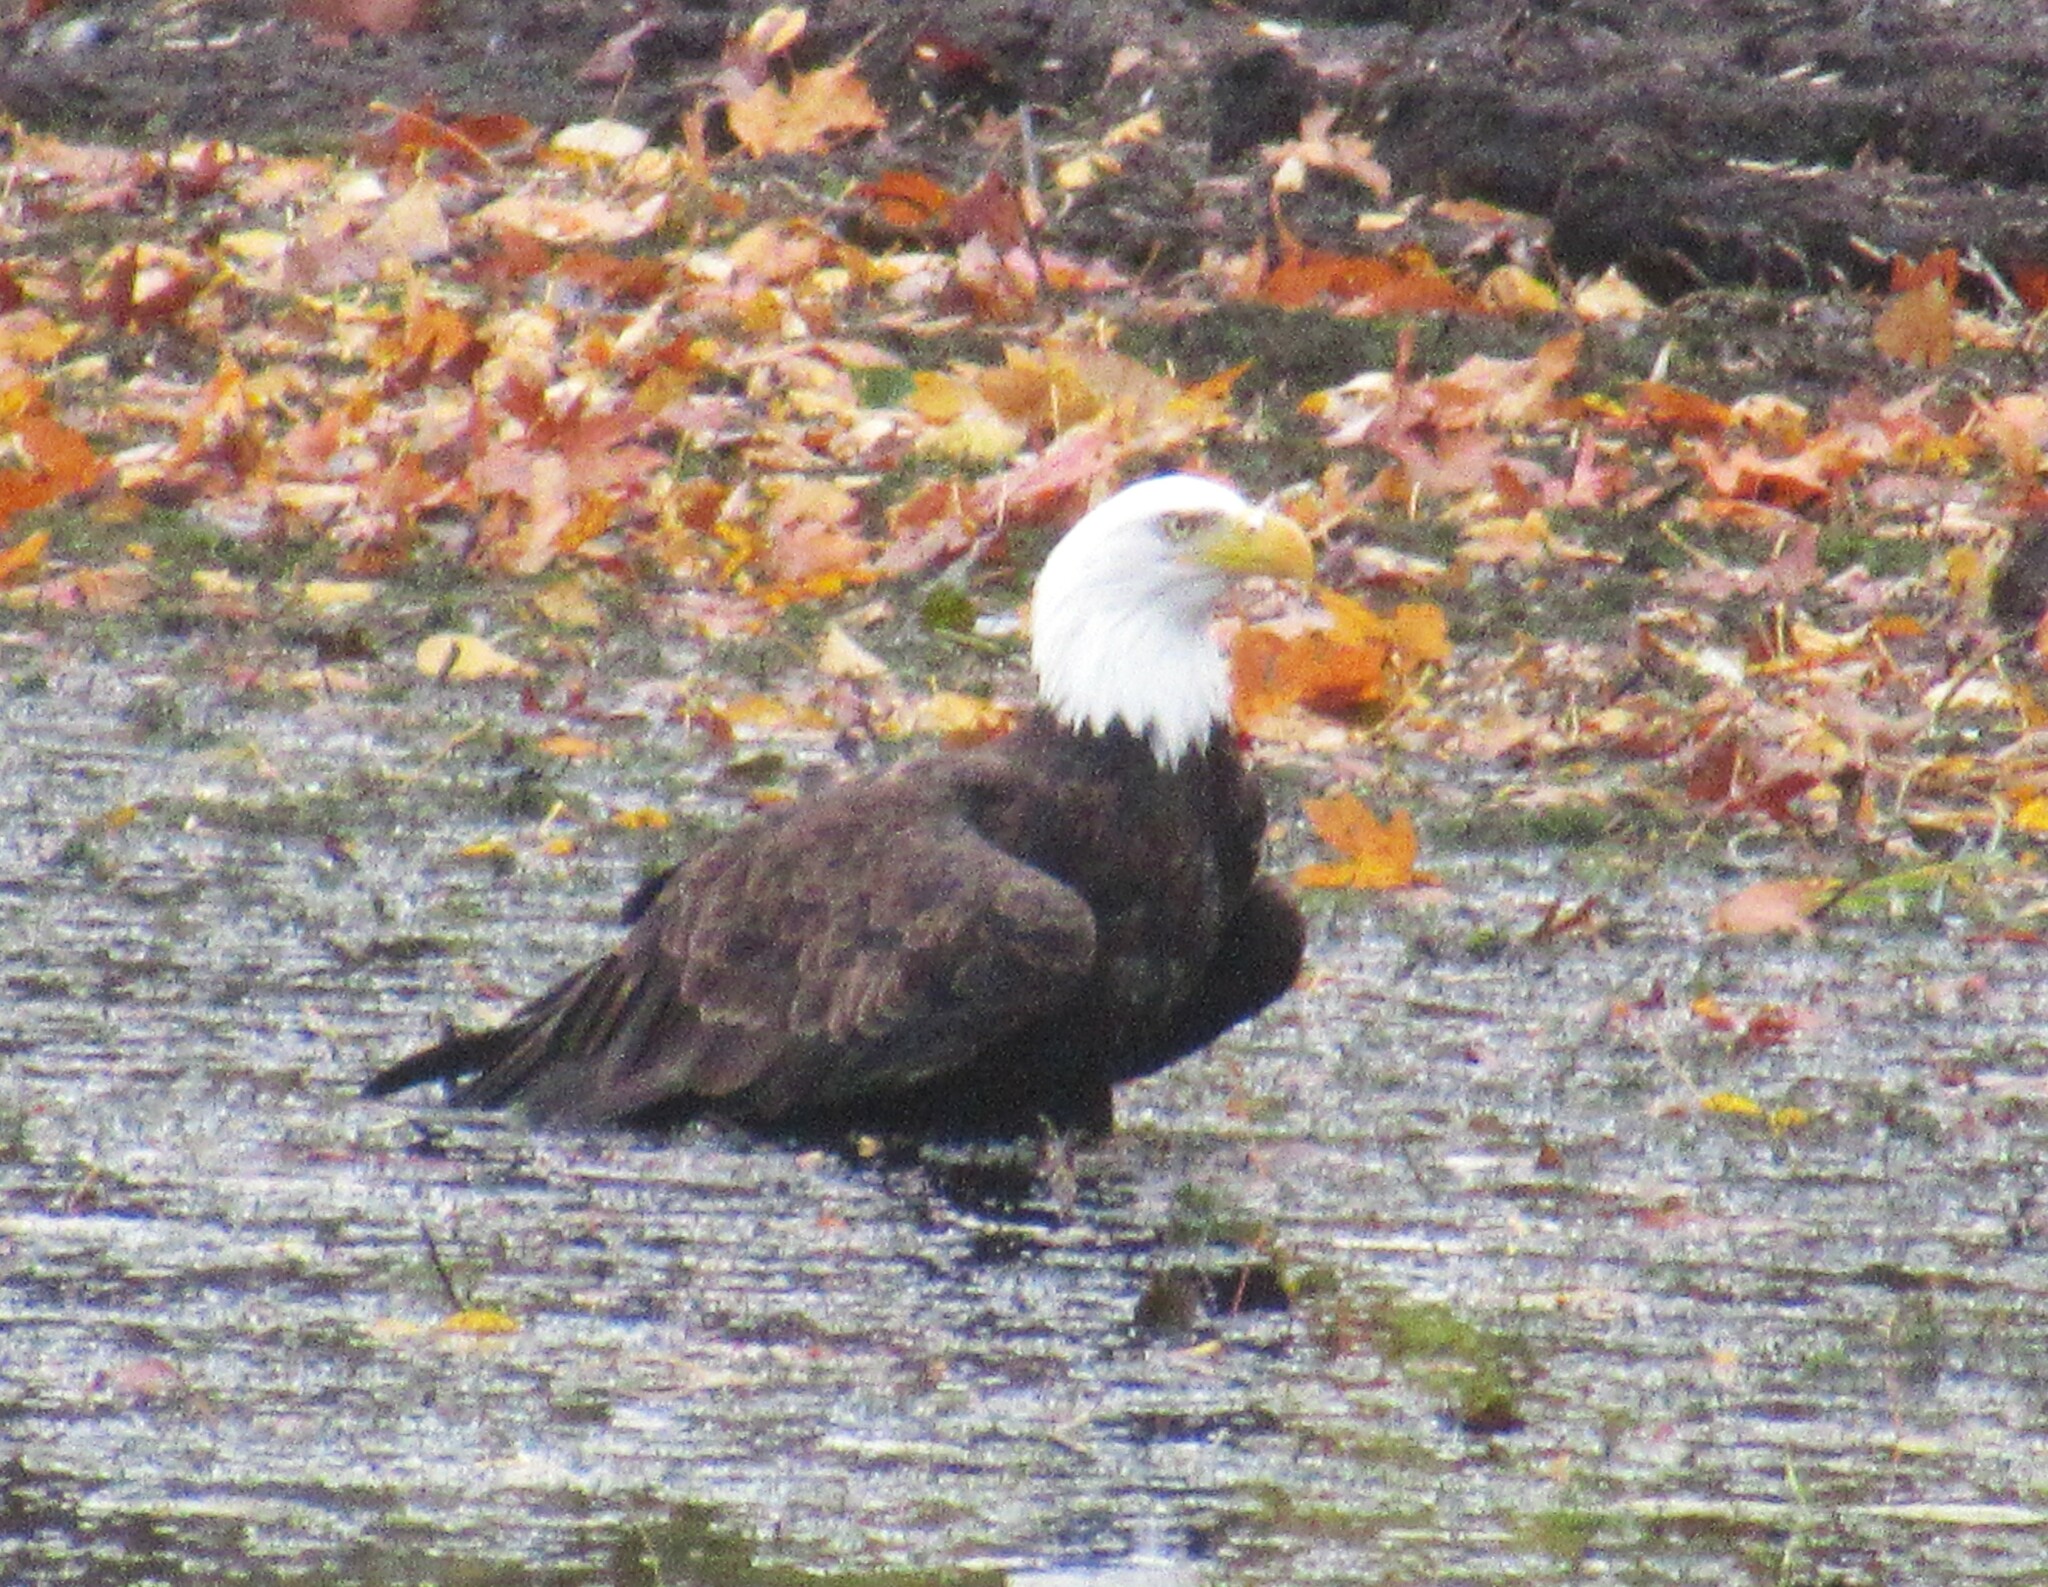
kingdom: Animalia
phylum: Chordata
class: Aves
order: Accipitriformes
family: Accipitridae
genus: Haliaeetus
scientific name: Haliaeetus leucocephalus
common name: Bald eagle
